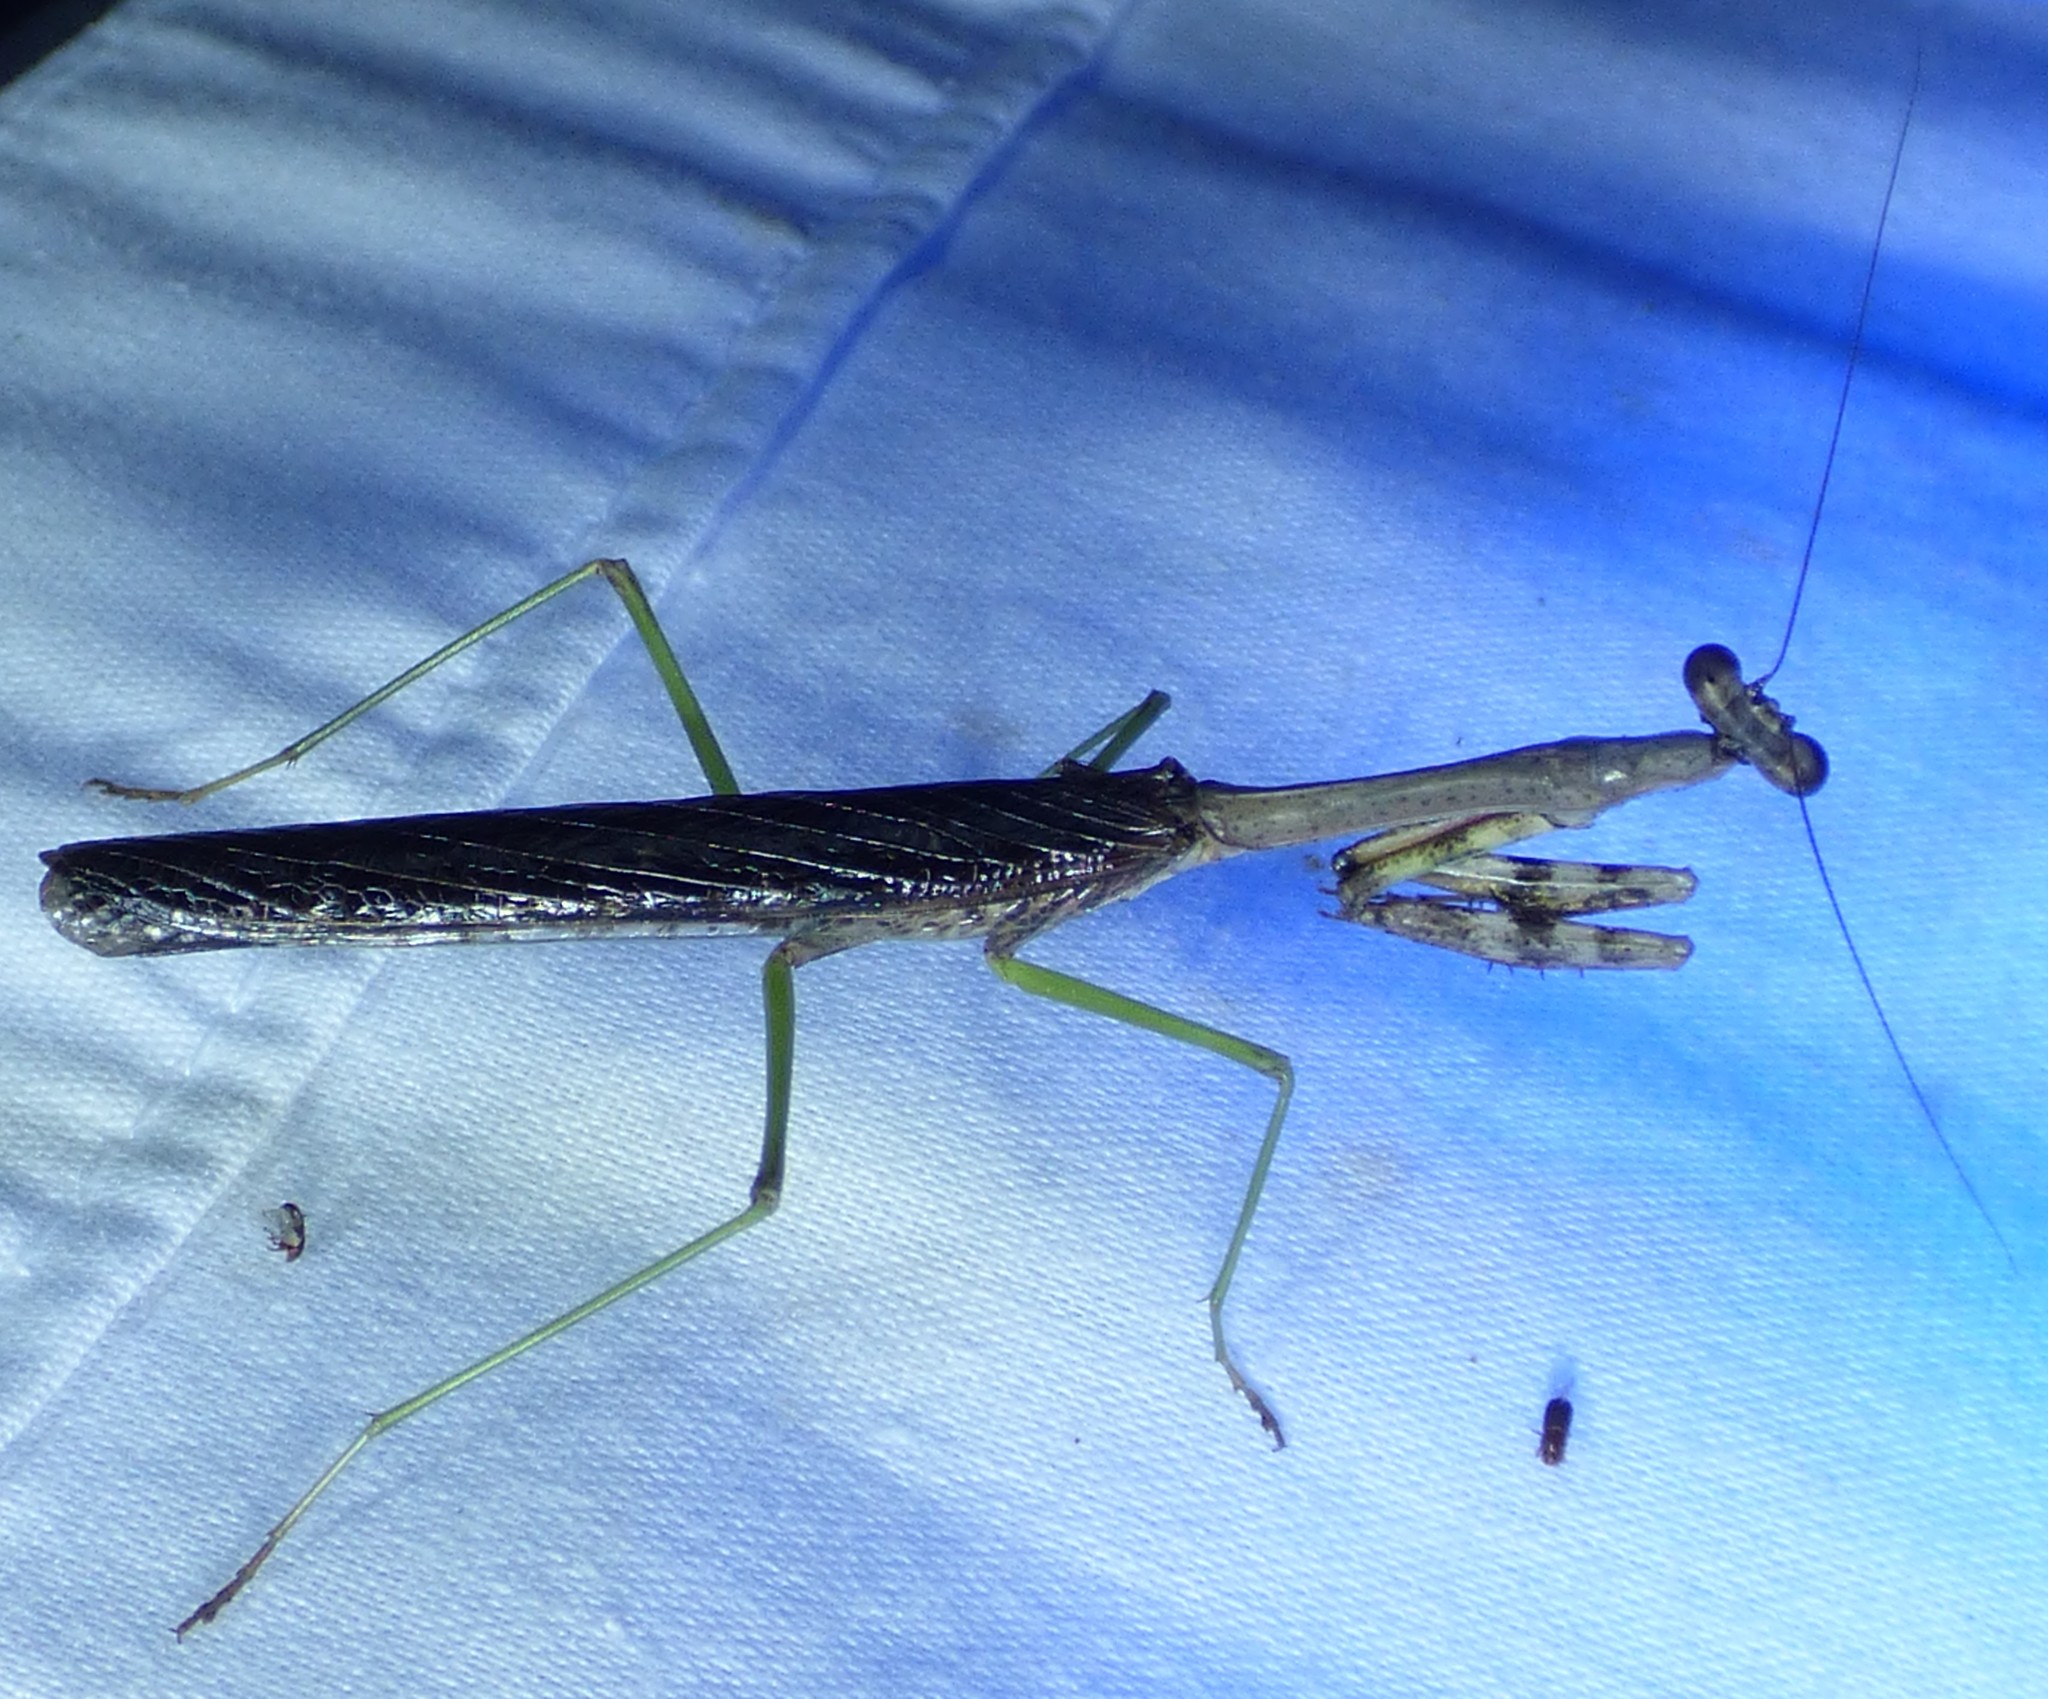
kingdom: Animalia
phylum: Arthropoda
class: Insecta
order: Mantodea
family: Mantidae
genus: Stagmomantis
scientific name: Stagmomantis carolina
